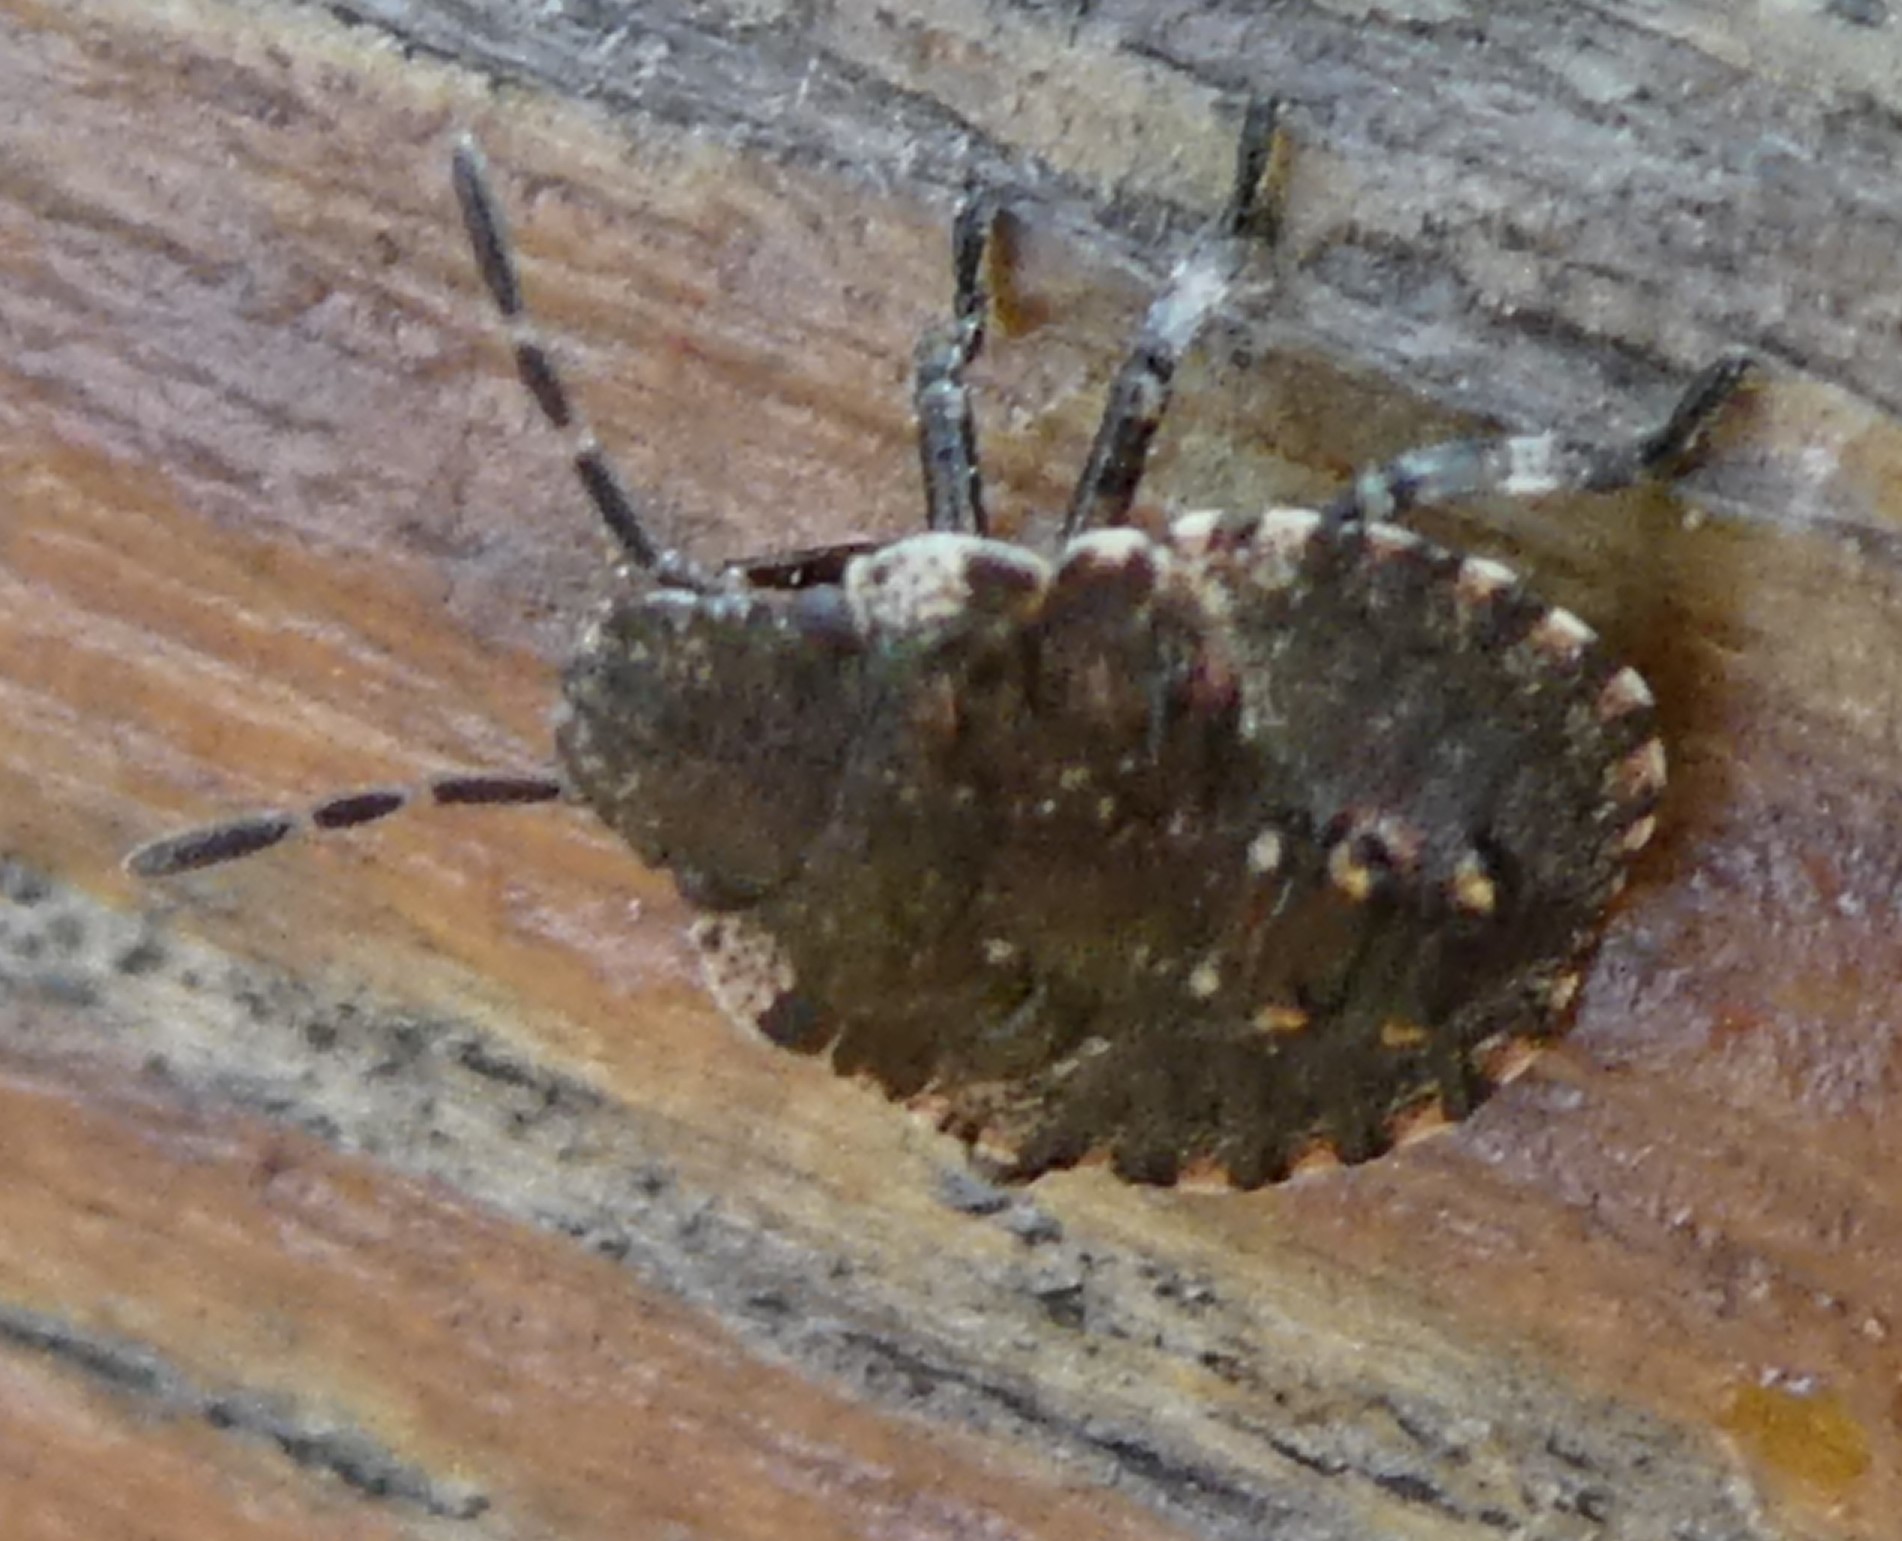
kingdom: Animalia
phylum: Arthropoda
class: Insecta
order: Hemiptera
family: Pentatomidae
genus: Pentatoma
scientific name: Pentatoma rufipes
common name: Forest bug
